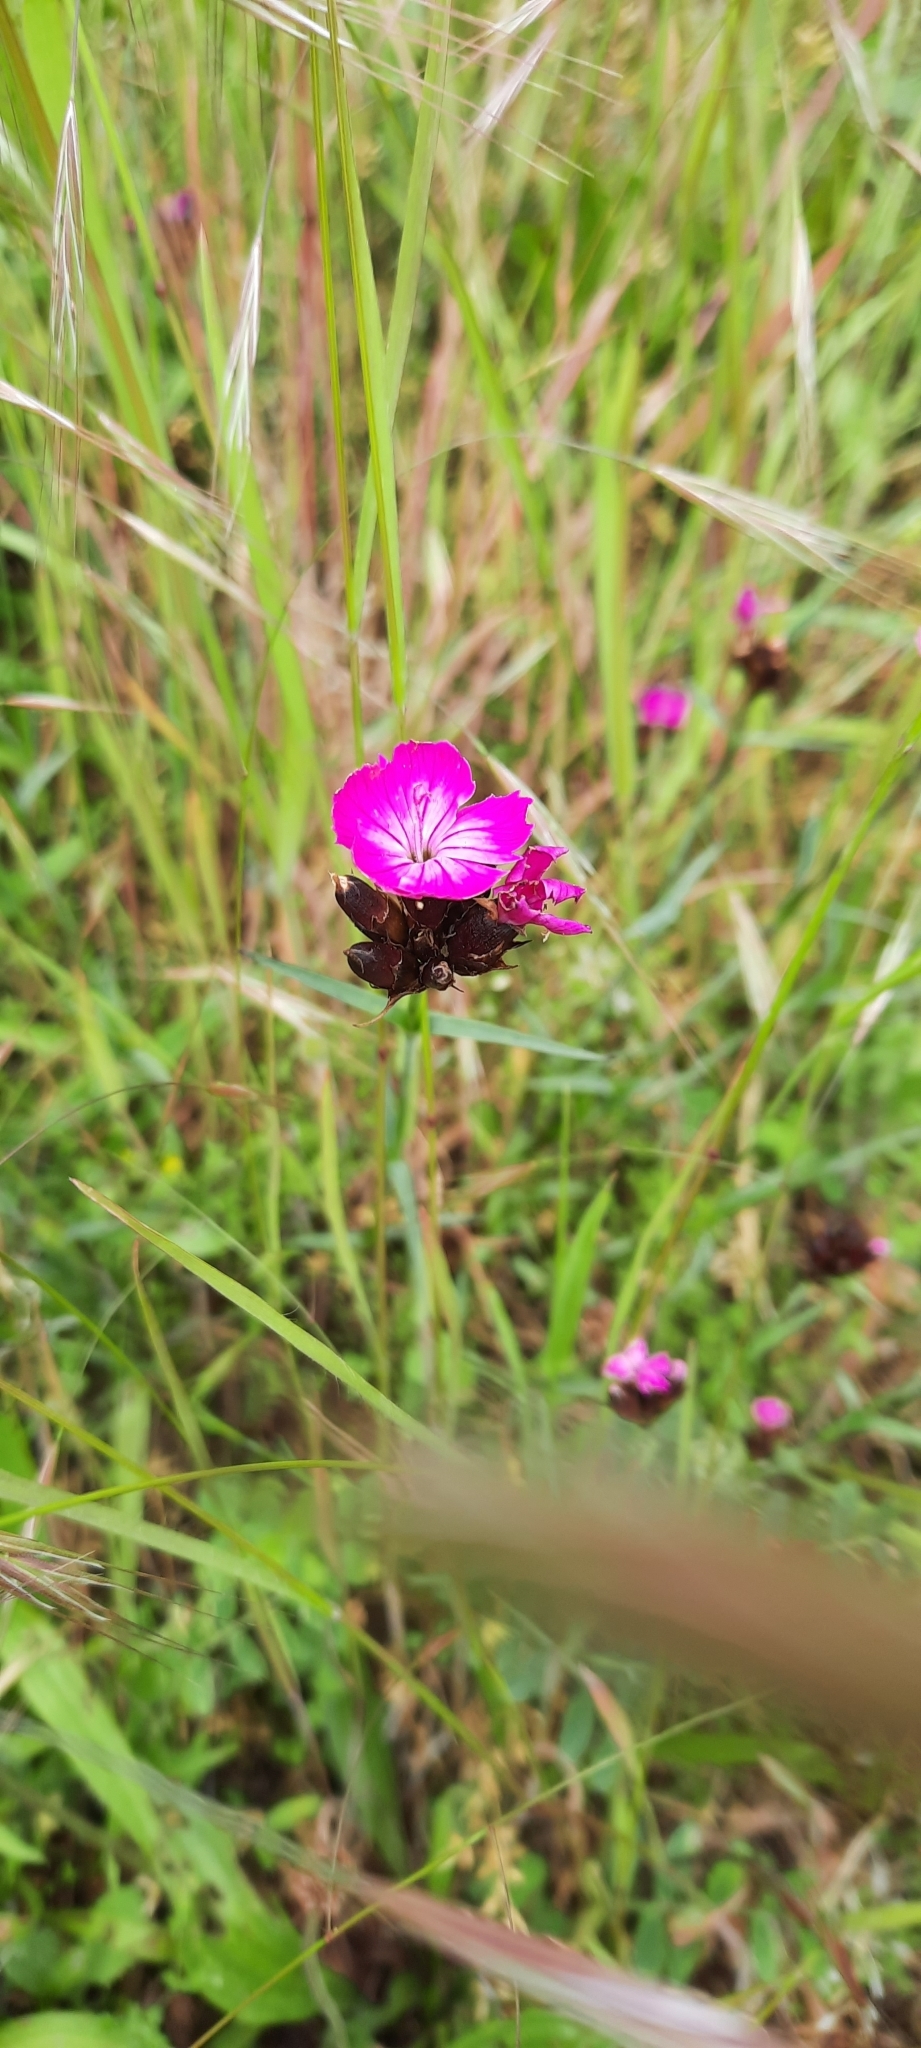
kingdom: Plantae
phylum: Tracheophyta
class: Magnoliopsida
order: Caryophyllales
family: Caryophyllaceae
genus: Dianthus
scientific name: Dianthus carthusianorum
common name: Carthusian pink
